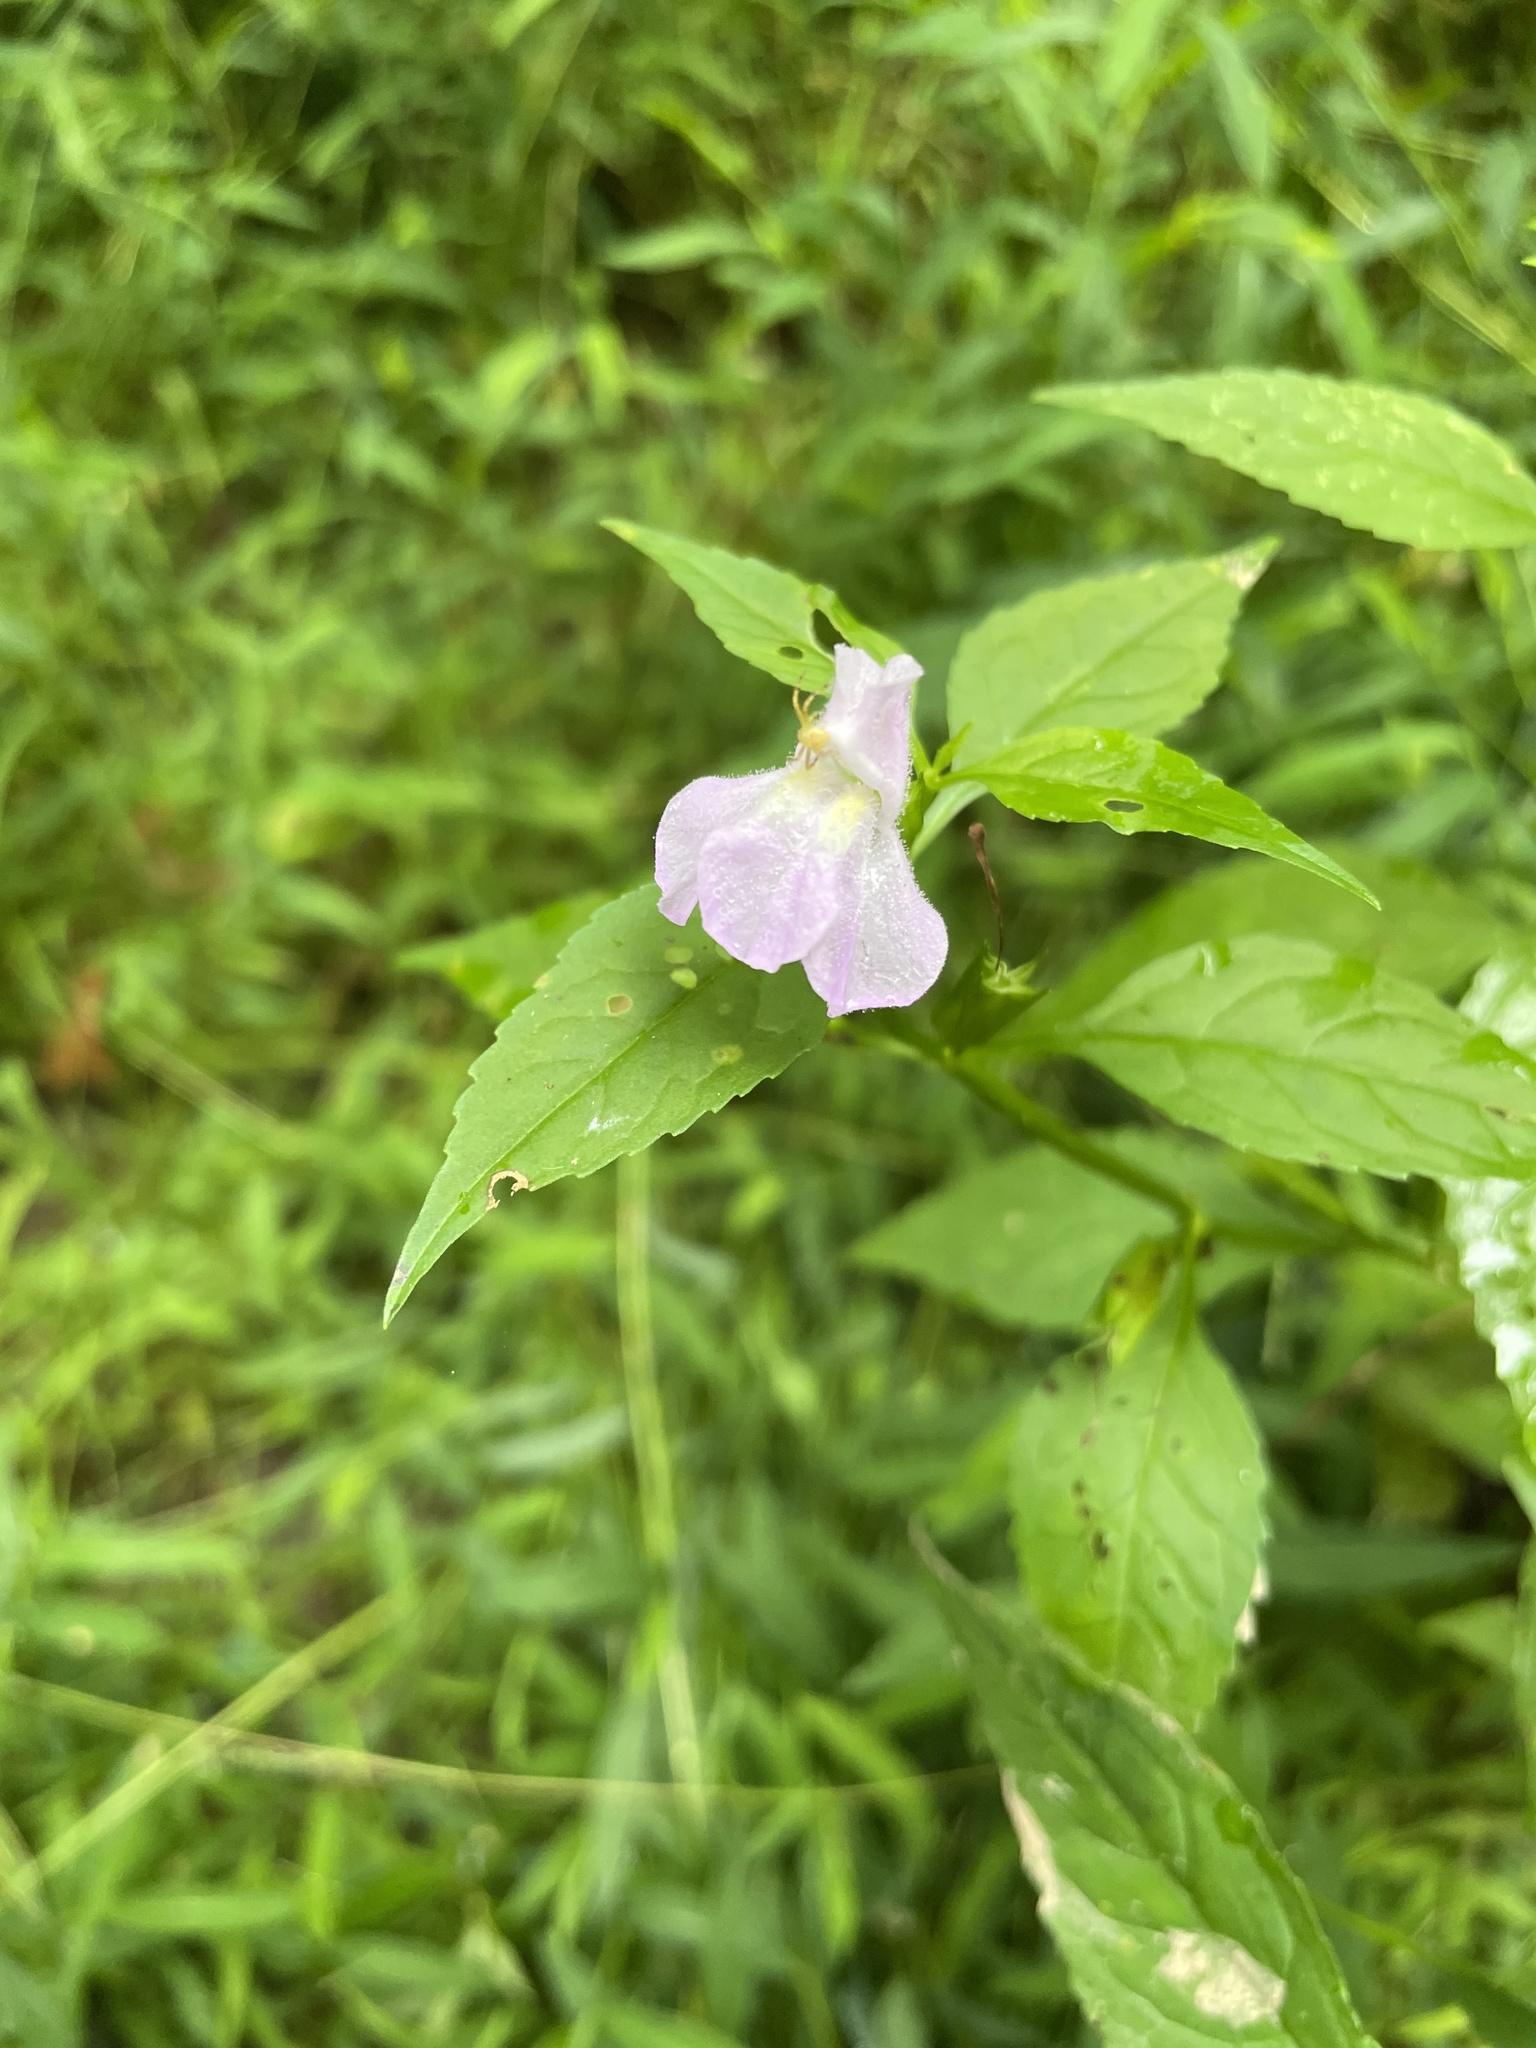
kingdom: Plantae
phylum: Tracheophyta
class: Magnoliopsida
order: Lamiales
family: Phrymaceae
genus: Mimulus
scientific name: Mimulus alatus
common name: Sharp-wing monkey-flower
